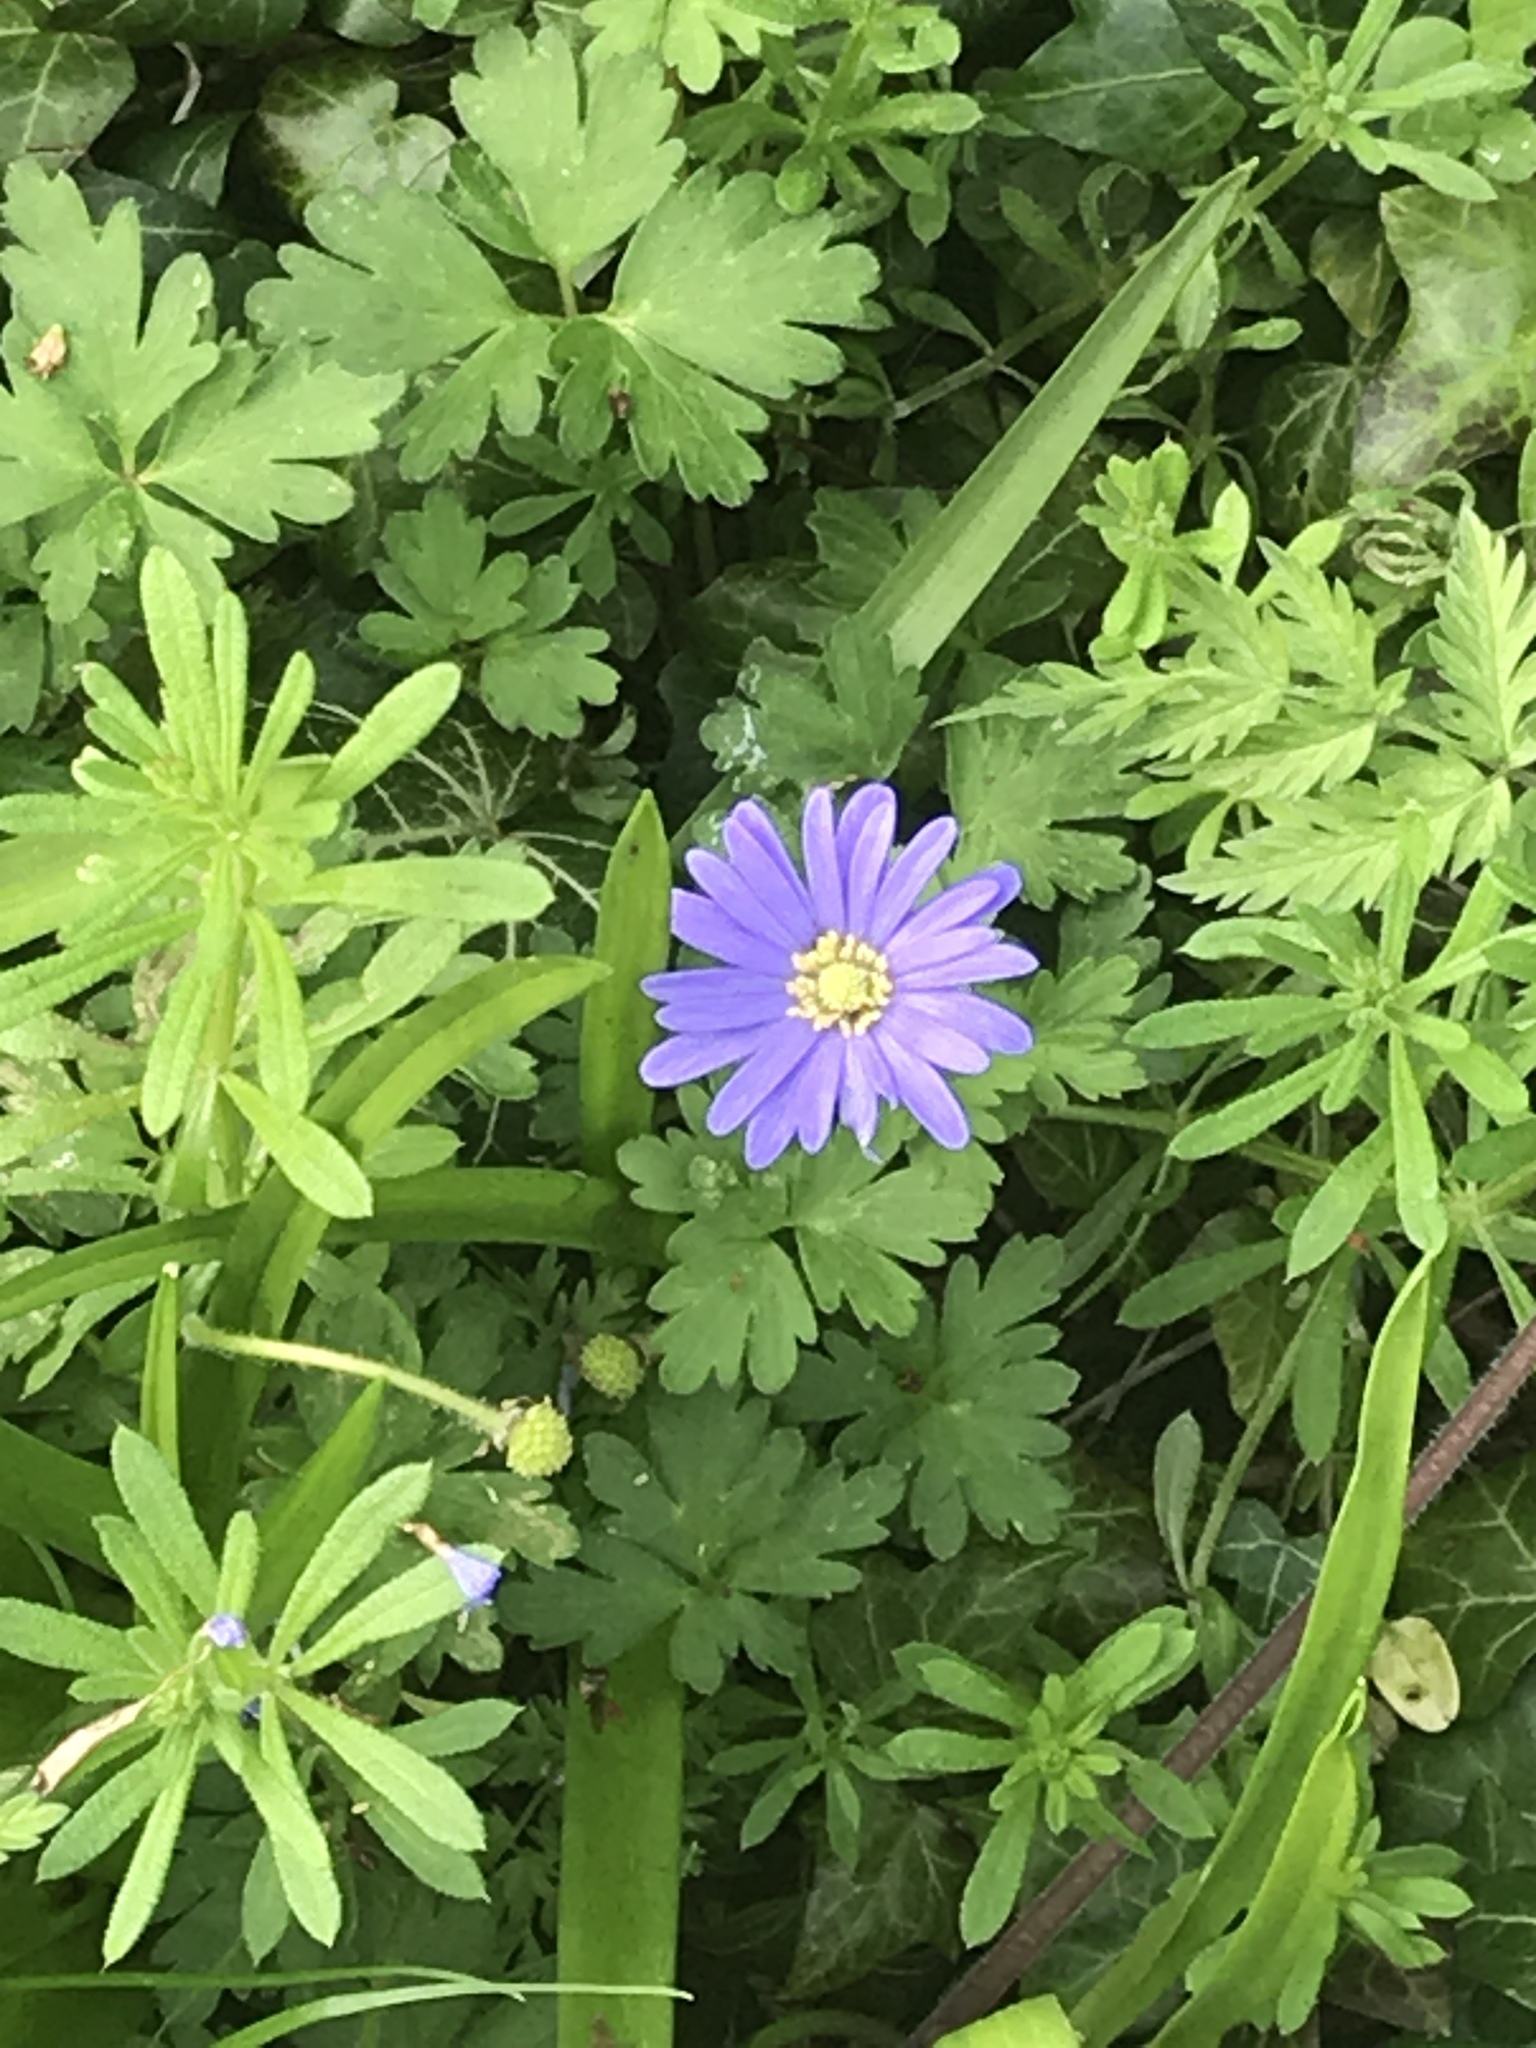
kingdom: Plantae
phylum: Tracheophyta
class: Magnoliopsida
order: Ranunculales
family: Ranunculaceae
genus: Anemone
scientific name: Anemone blanda
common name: Balkan anemone
